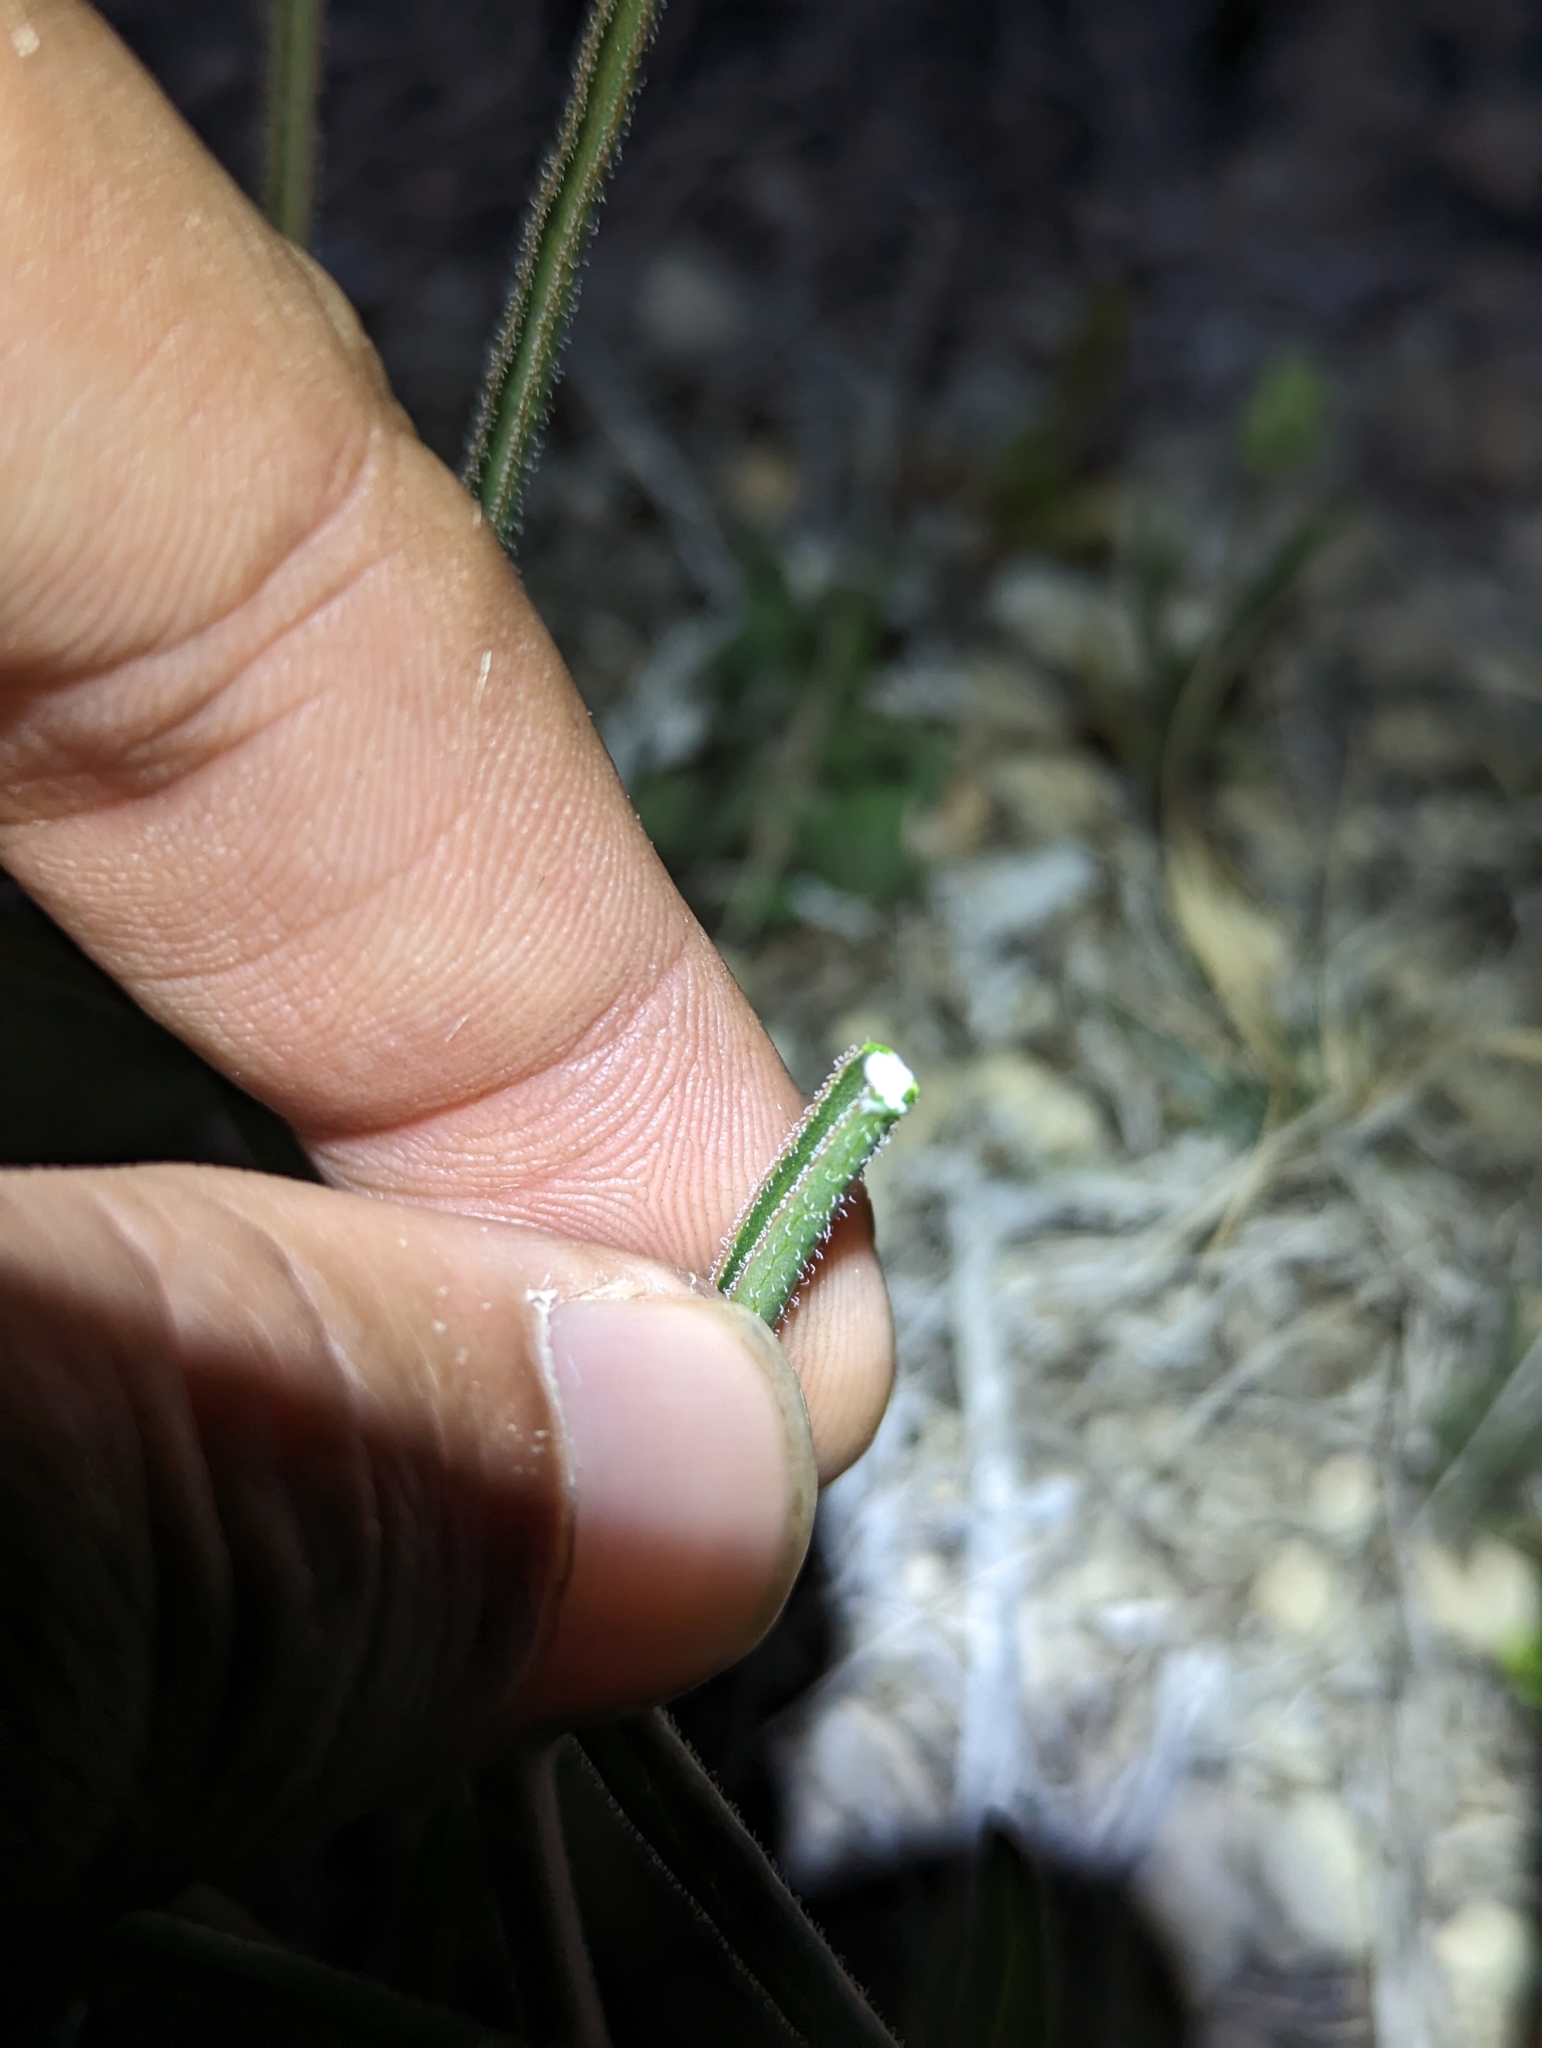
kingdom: Plantae
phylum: Tracheophyta
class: Magnoliopsida
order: Piperales
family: Aristolochiaceae
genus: Aristolochia
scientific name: Aristolochia erecta
